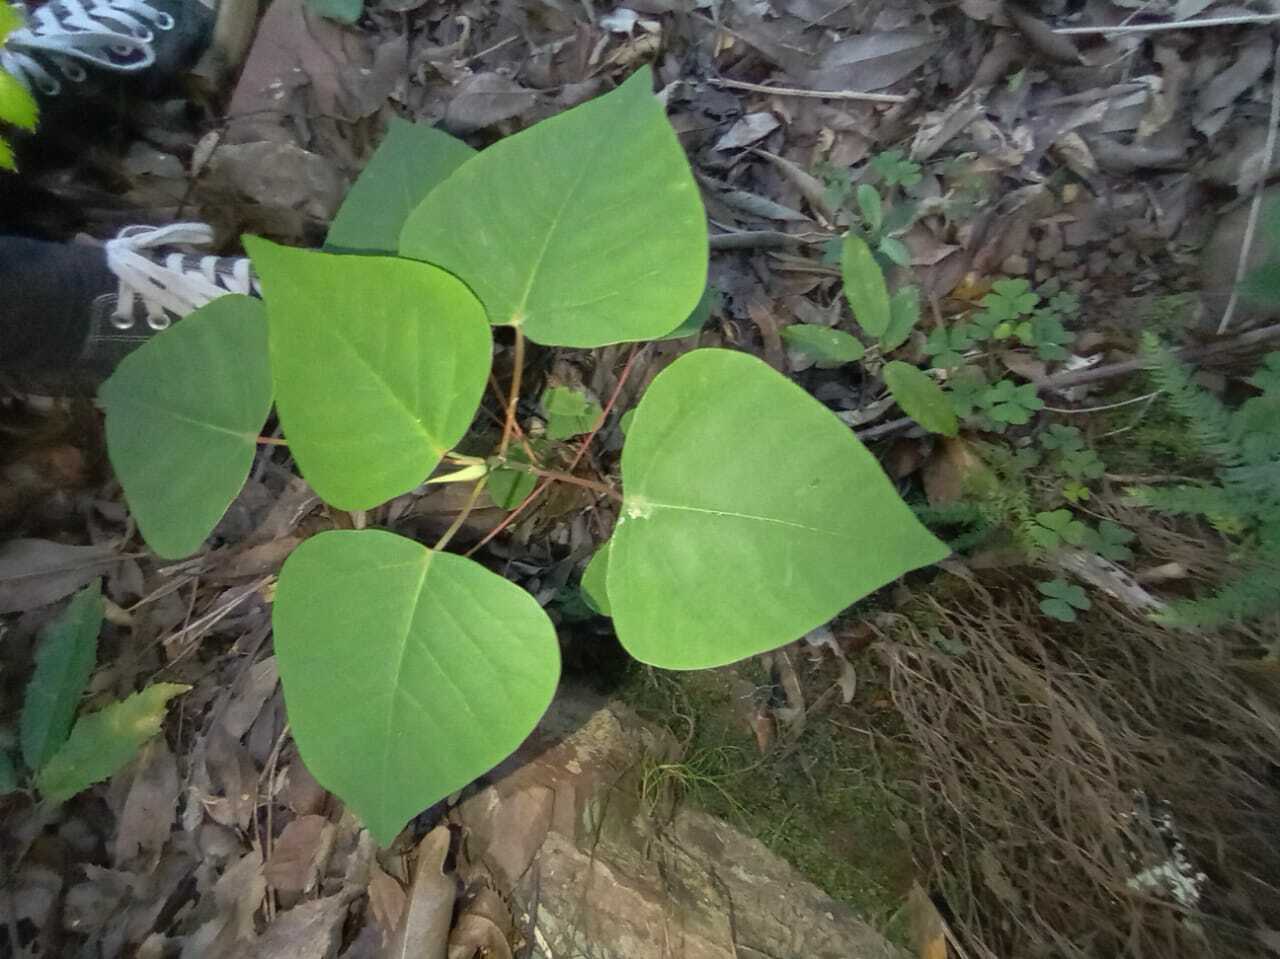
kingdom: Plantae
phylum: Tracheophyta
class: Magnoliopsida
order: Malpighiales
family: Euphorbiaceae
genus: Homalanthus
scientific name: Homalanthus populifolius
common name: Queensland poplar
